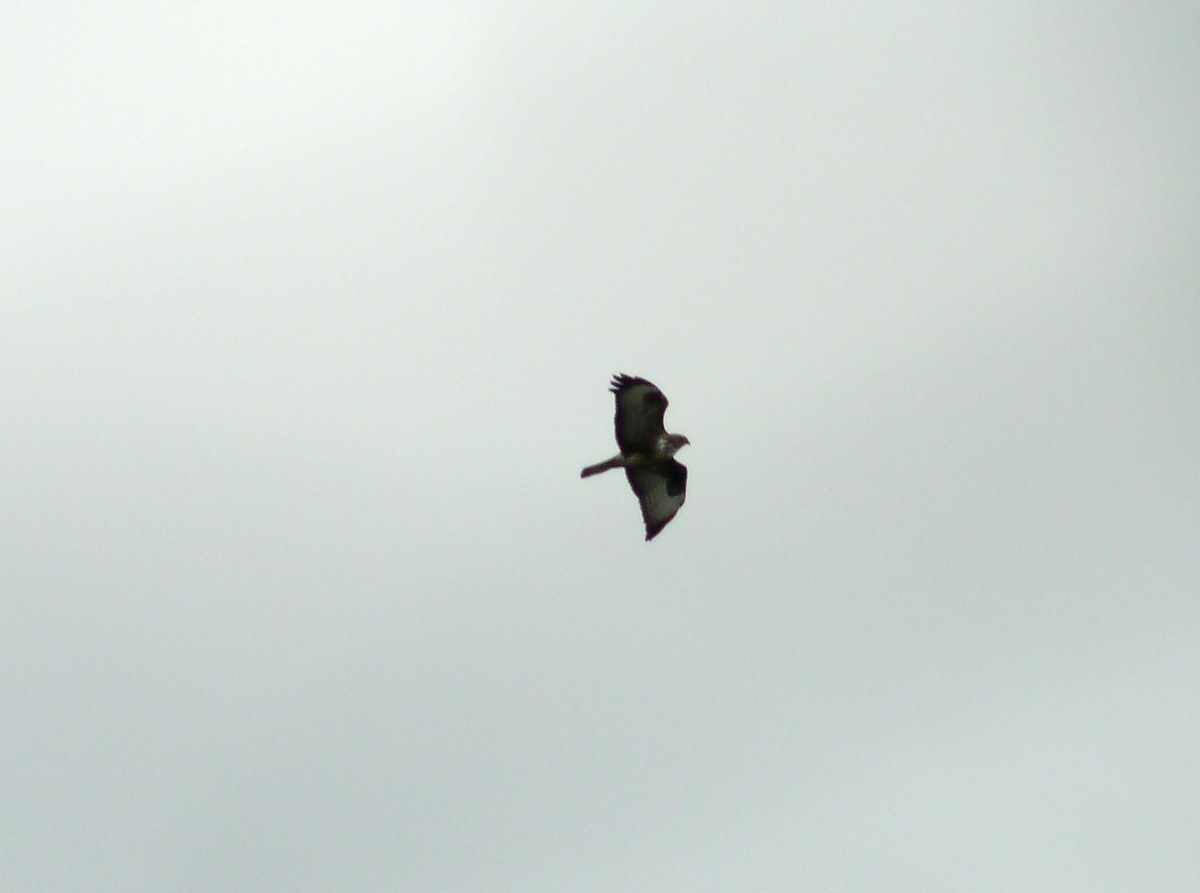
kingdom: Animalia
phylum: Chordata
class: Aves
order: Accipitriformes
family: Accipitridae
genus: Buteo
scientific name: Buteo buteo
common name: Common buzzard
